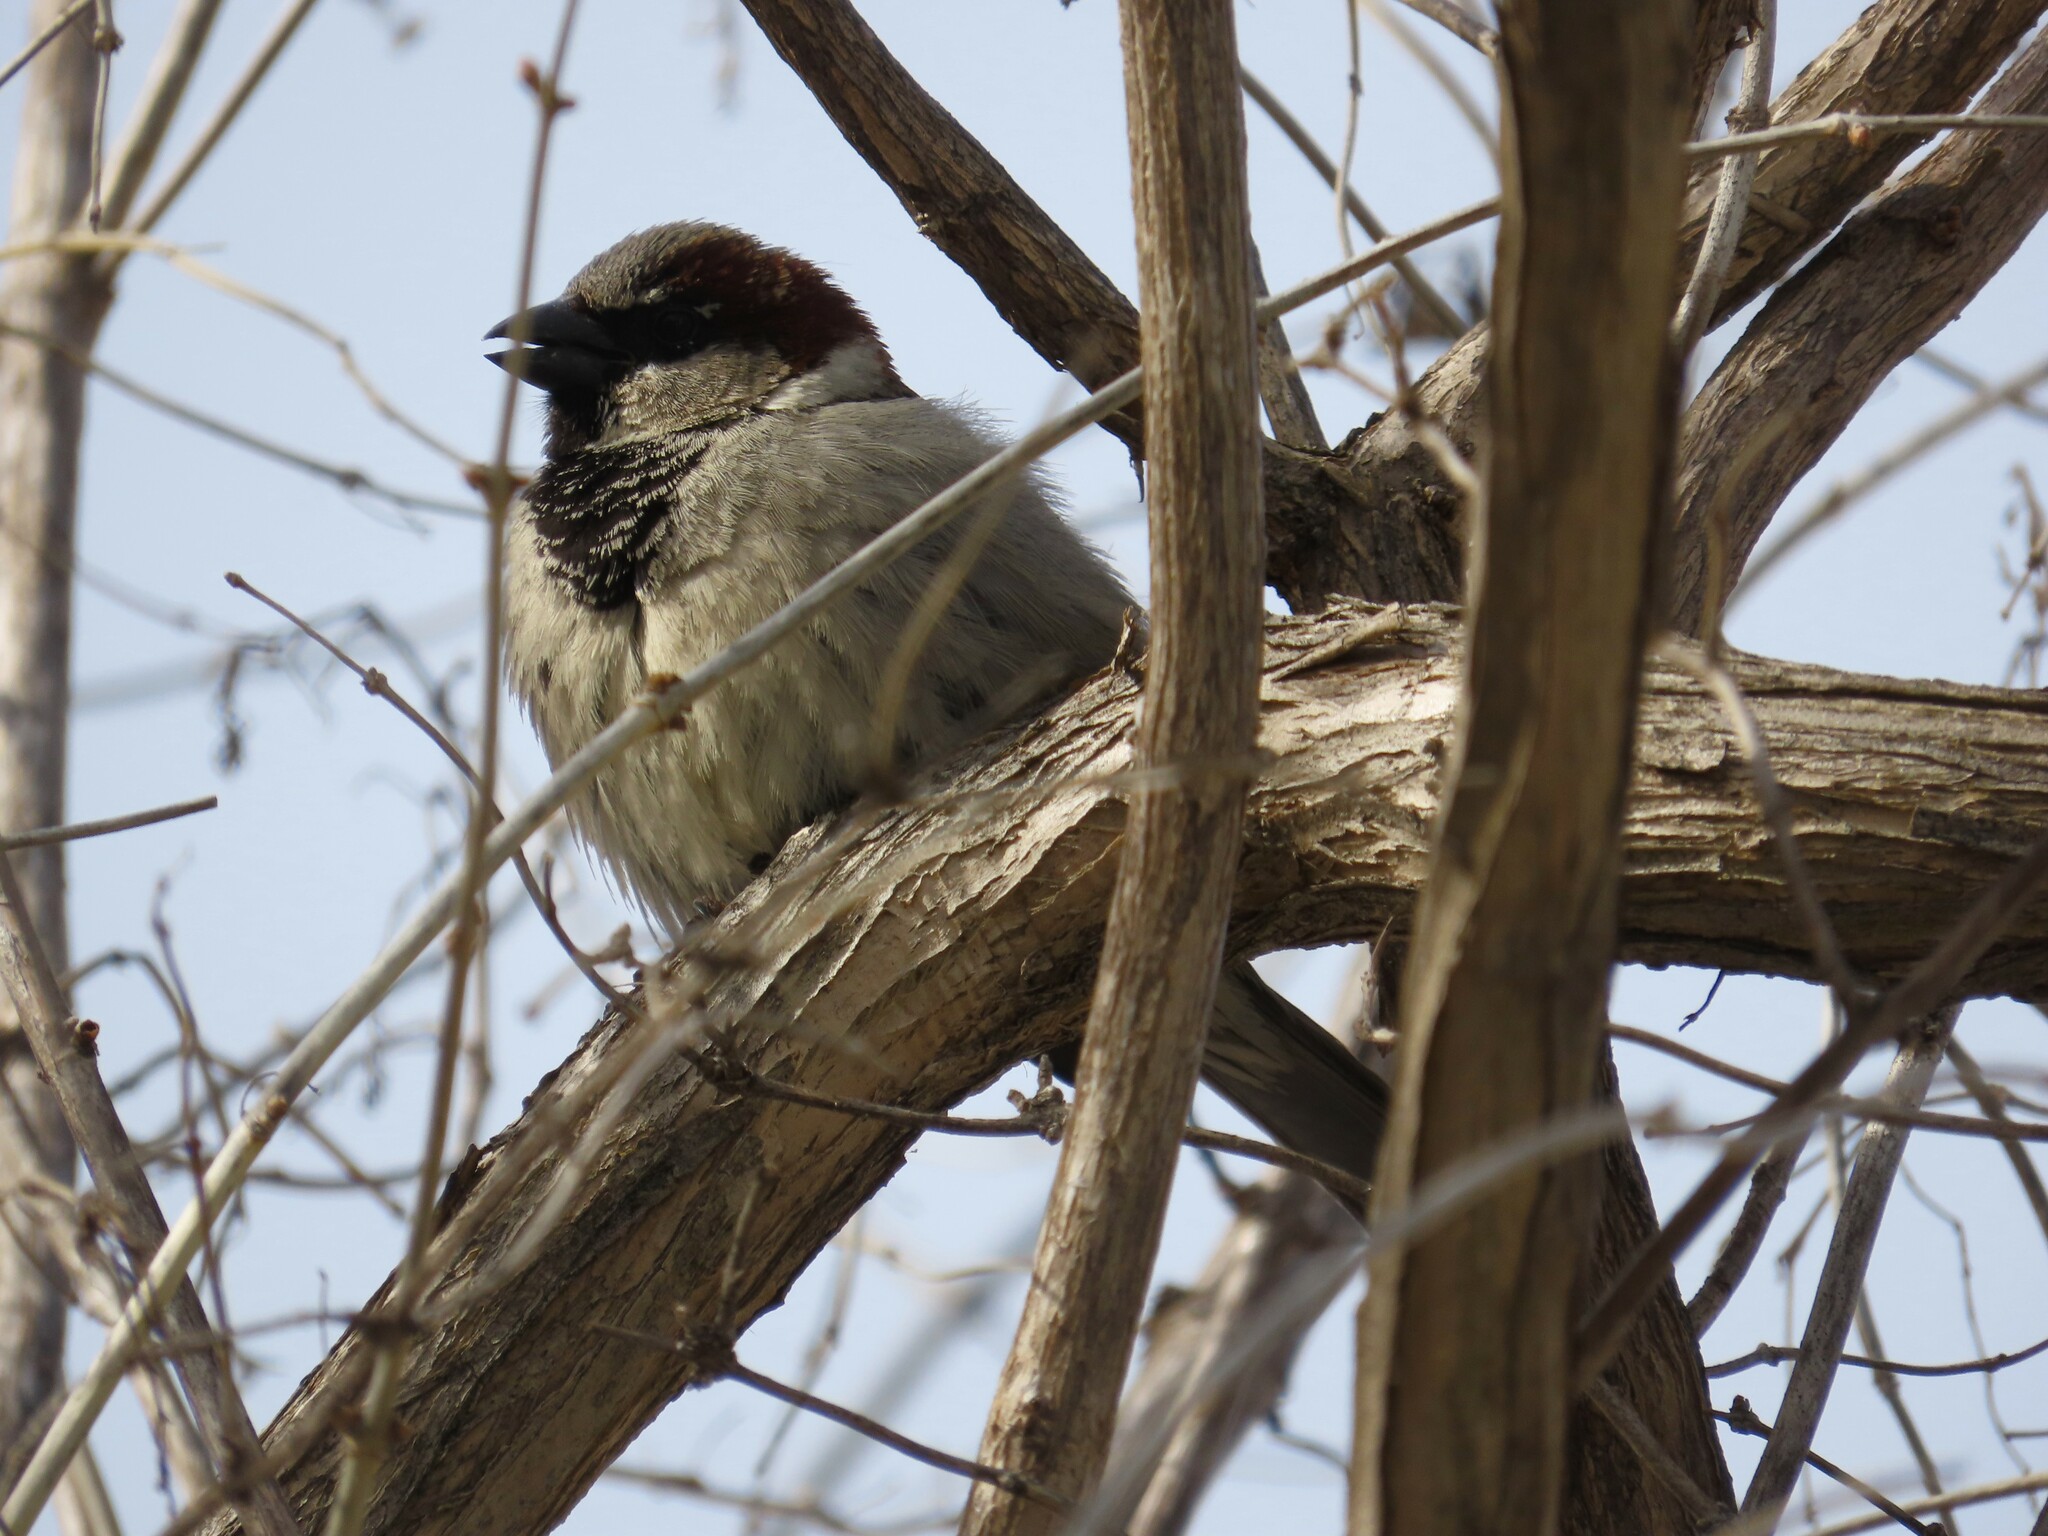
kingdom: Animalia
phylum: Chordata
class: Aves
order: Passeriformes
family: Passeridae
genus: Passer
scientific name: Passer domesticus
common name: House sparrow
